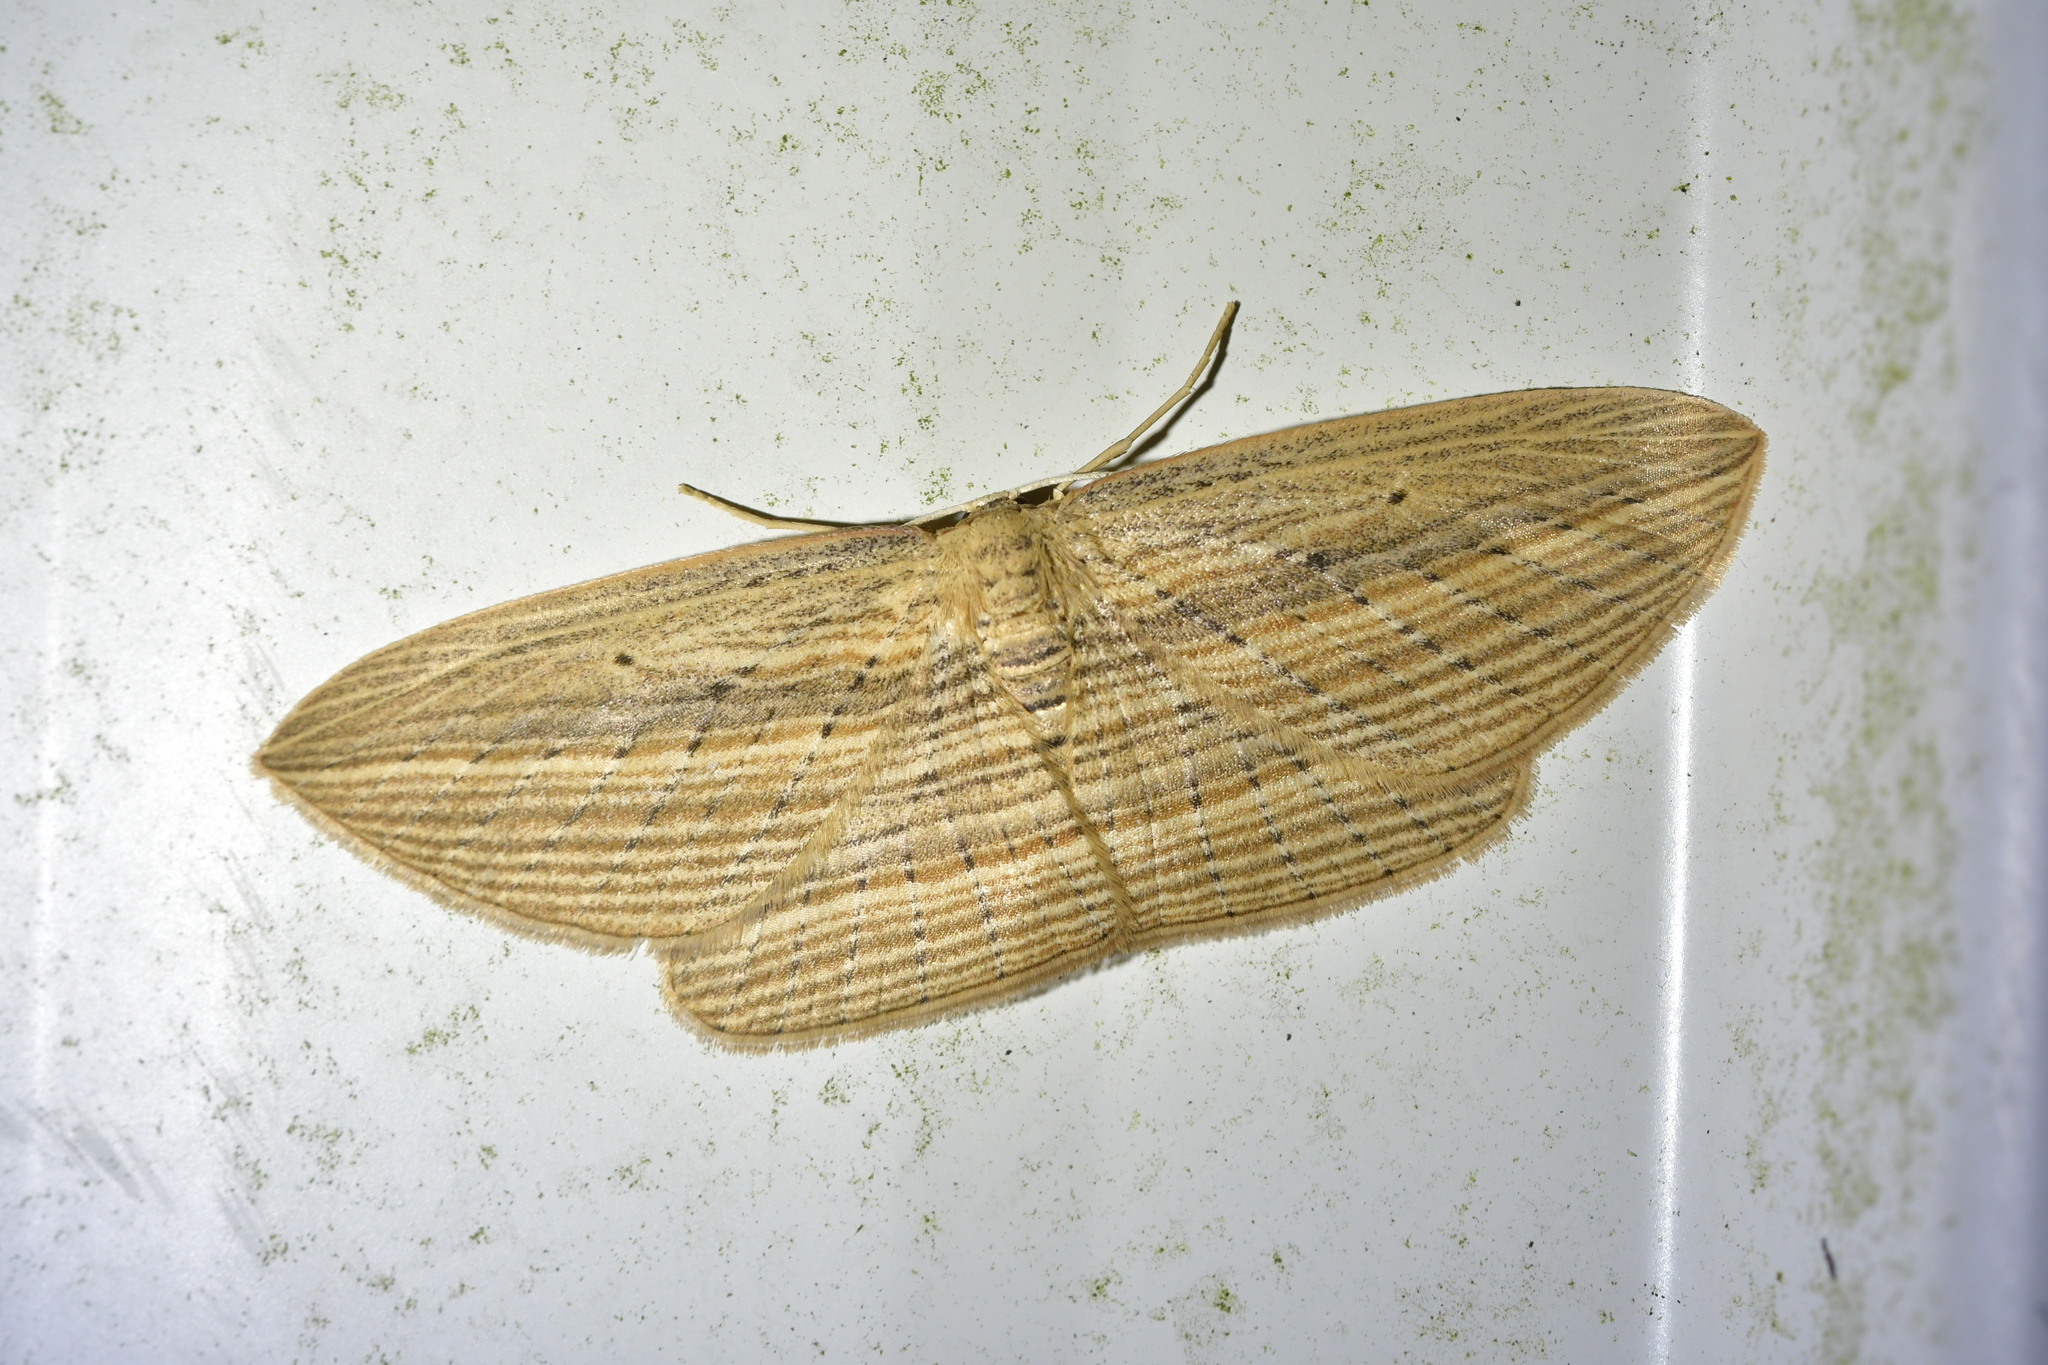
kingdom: Animalia
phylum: Arthropoda
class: Insecta
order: Lepidoptera
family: Geometridae
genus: Epiphryne
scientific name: Epiphryne verriculata
